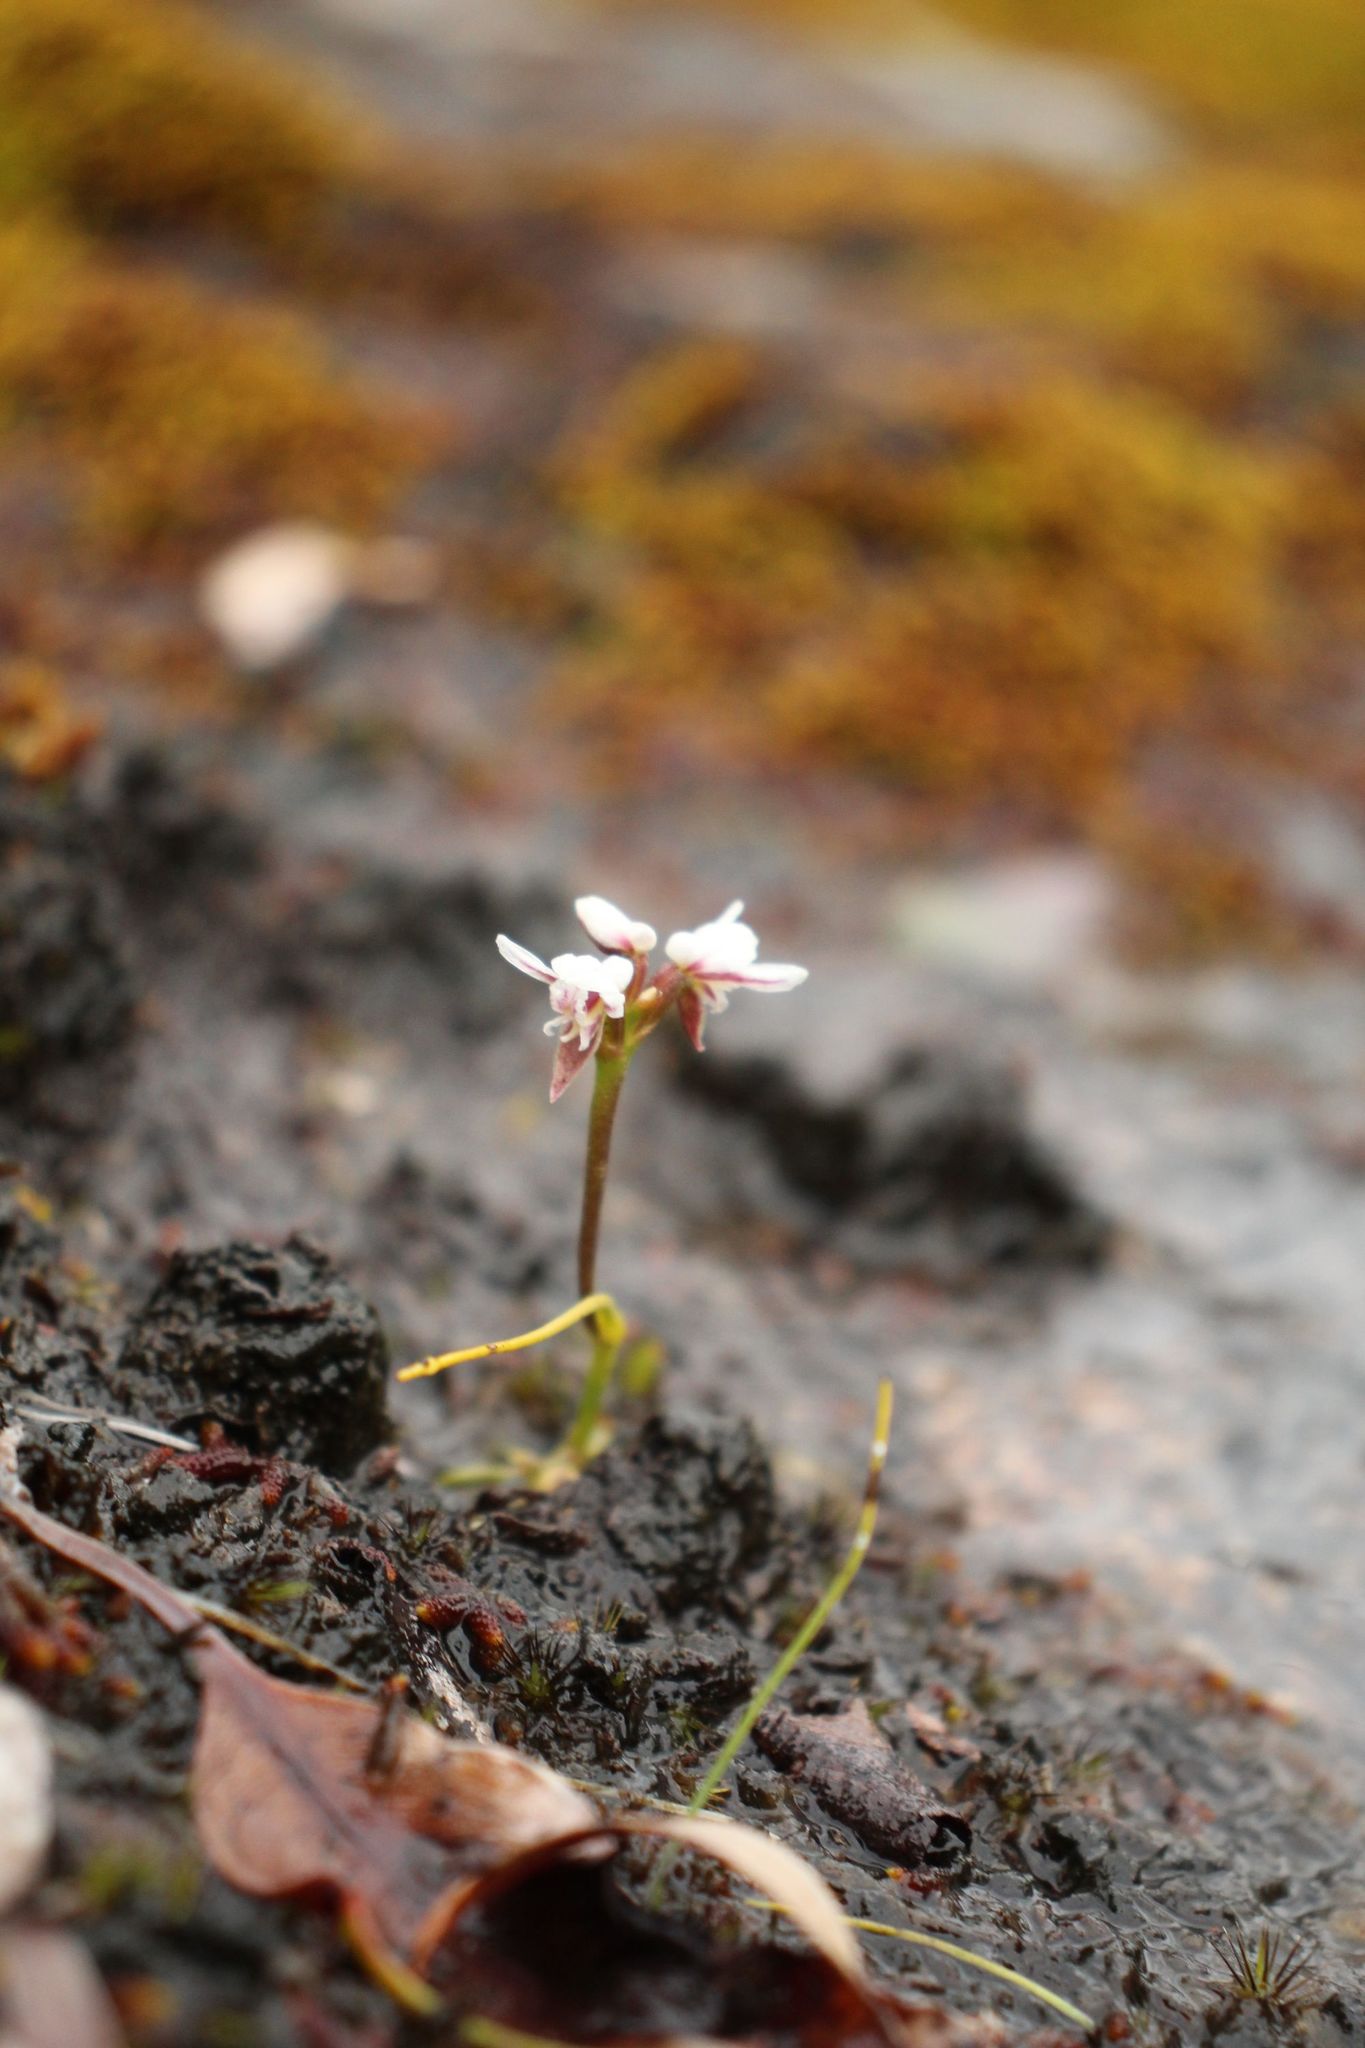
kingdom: Plantae
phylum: Tracheophyta
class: Liliopsida
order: Asparagales
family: Orchidaceae
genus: Prasophyllum
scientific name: Prasophyllum cucullatum
